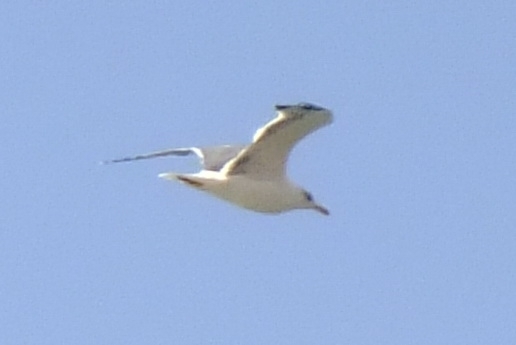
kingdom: Animalia
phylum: Chordata
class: Aves
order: Charadriiformes
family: Laridae
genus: Chroicocephalus
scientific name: Chroicocephalus ridibundus
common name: Black-headed gull
